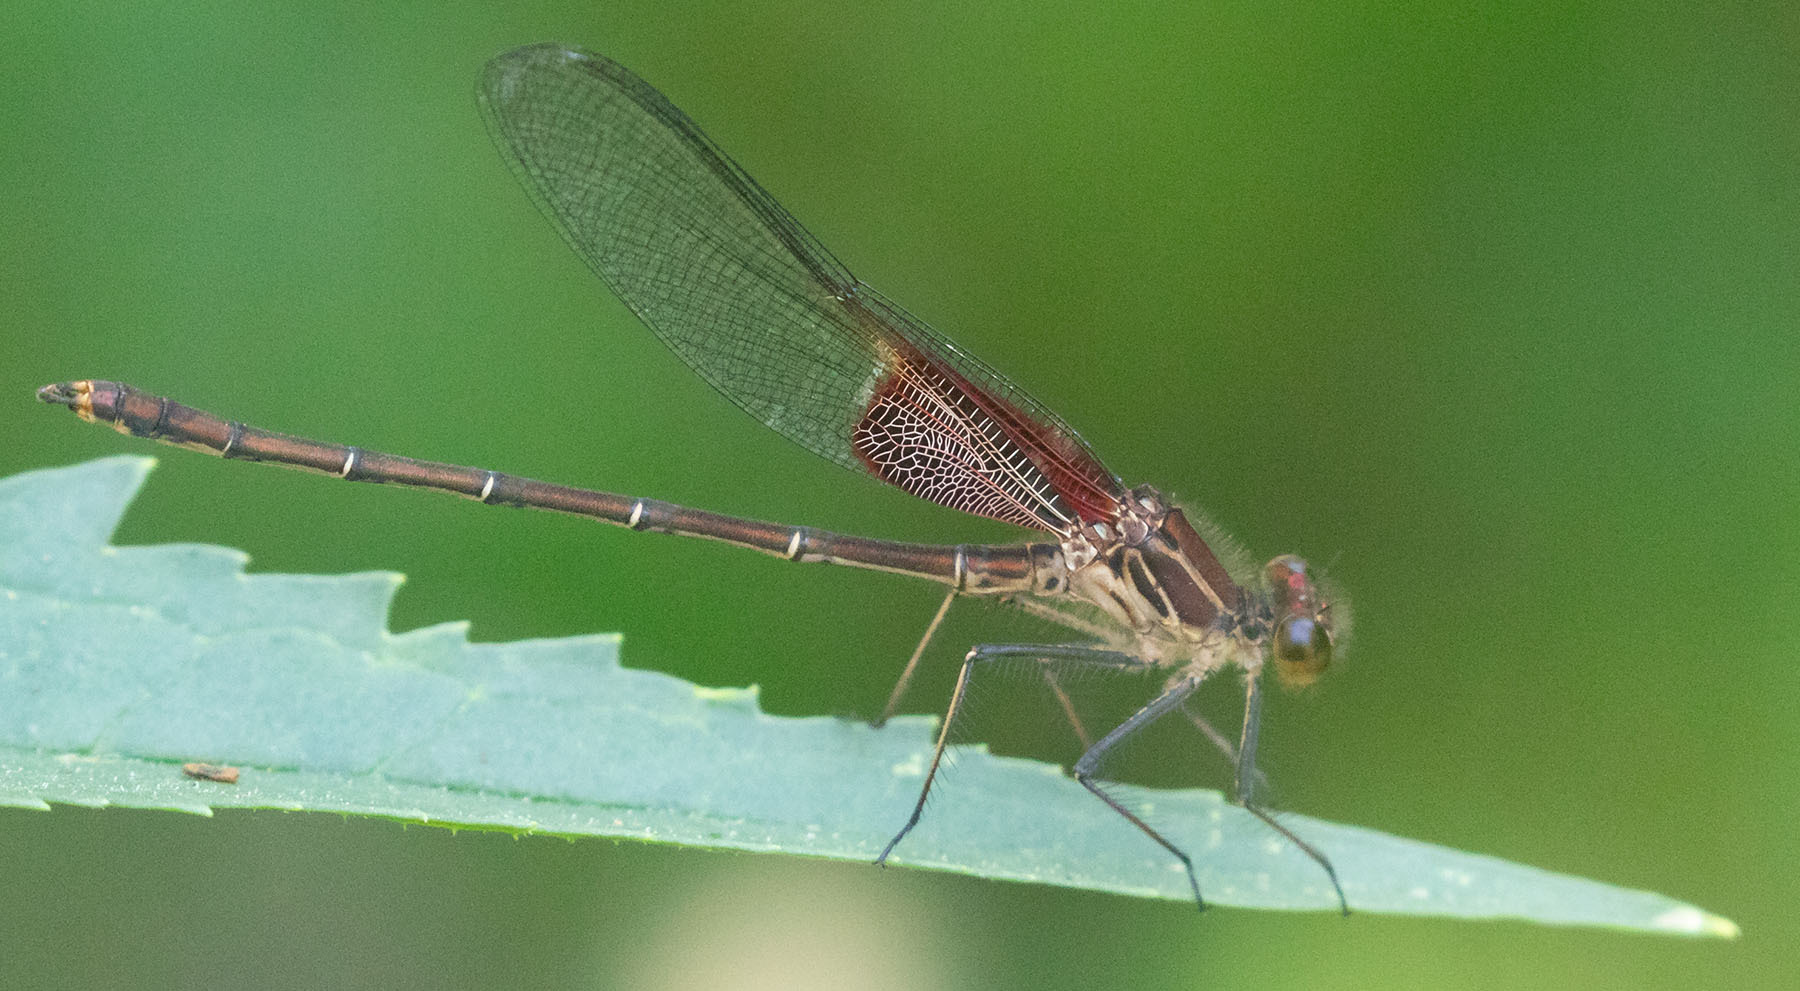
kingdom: Animalia
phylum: Arthropoda
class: Insecta
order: Odonata
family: Calopterygidae
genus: Hetaerina
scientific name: Hetaerina americana
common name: American rubyspot
